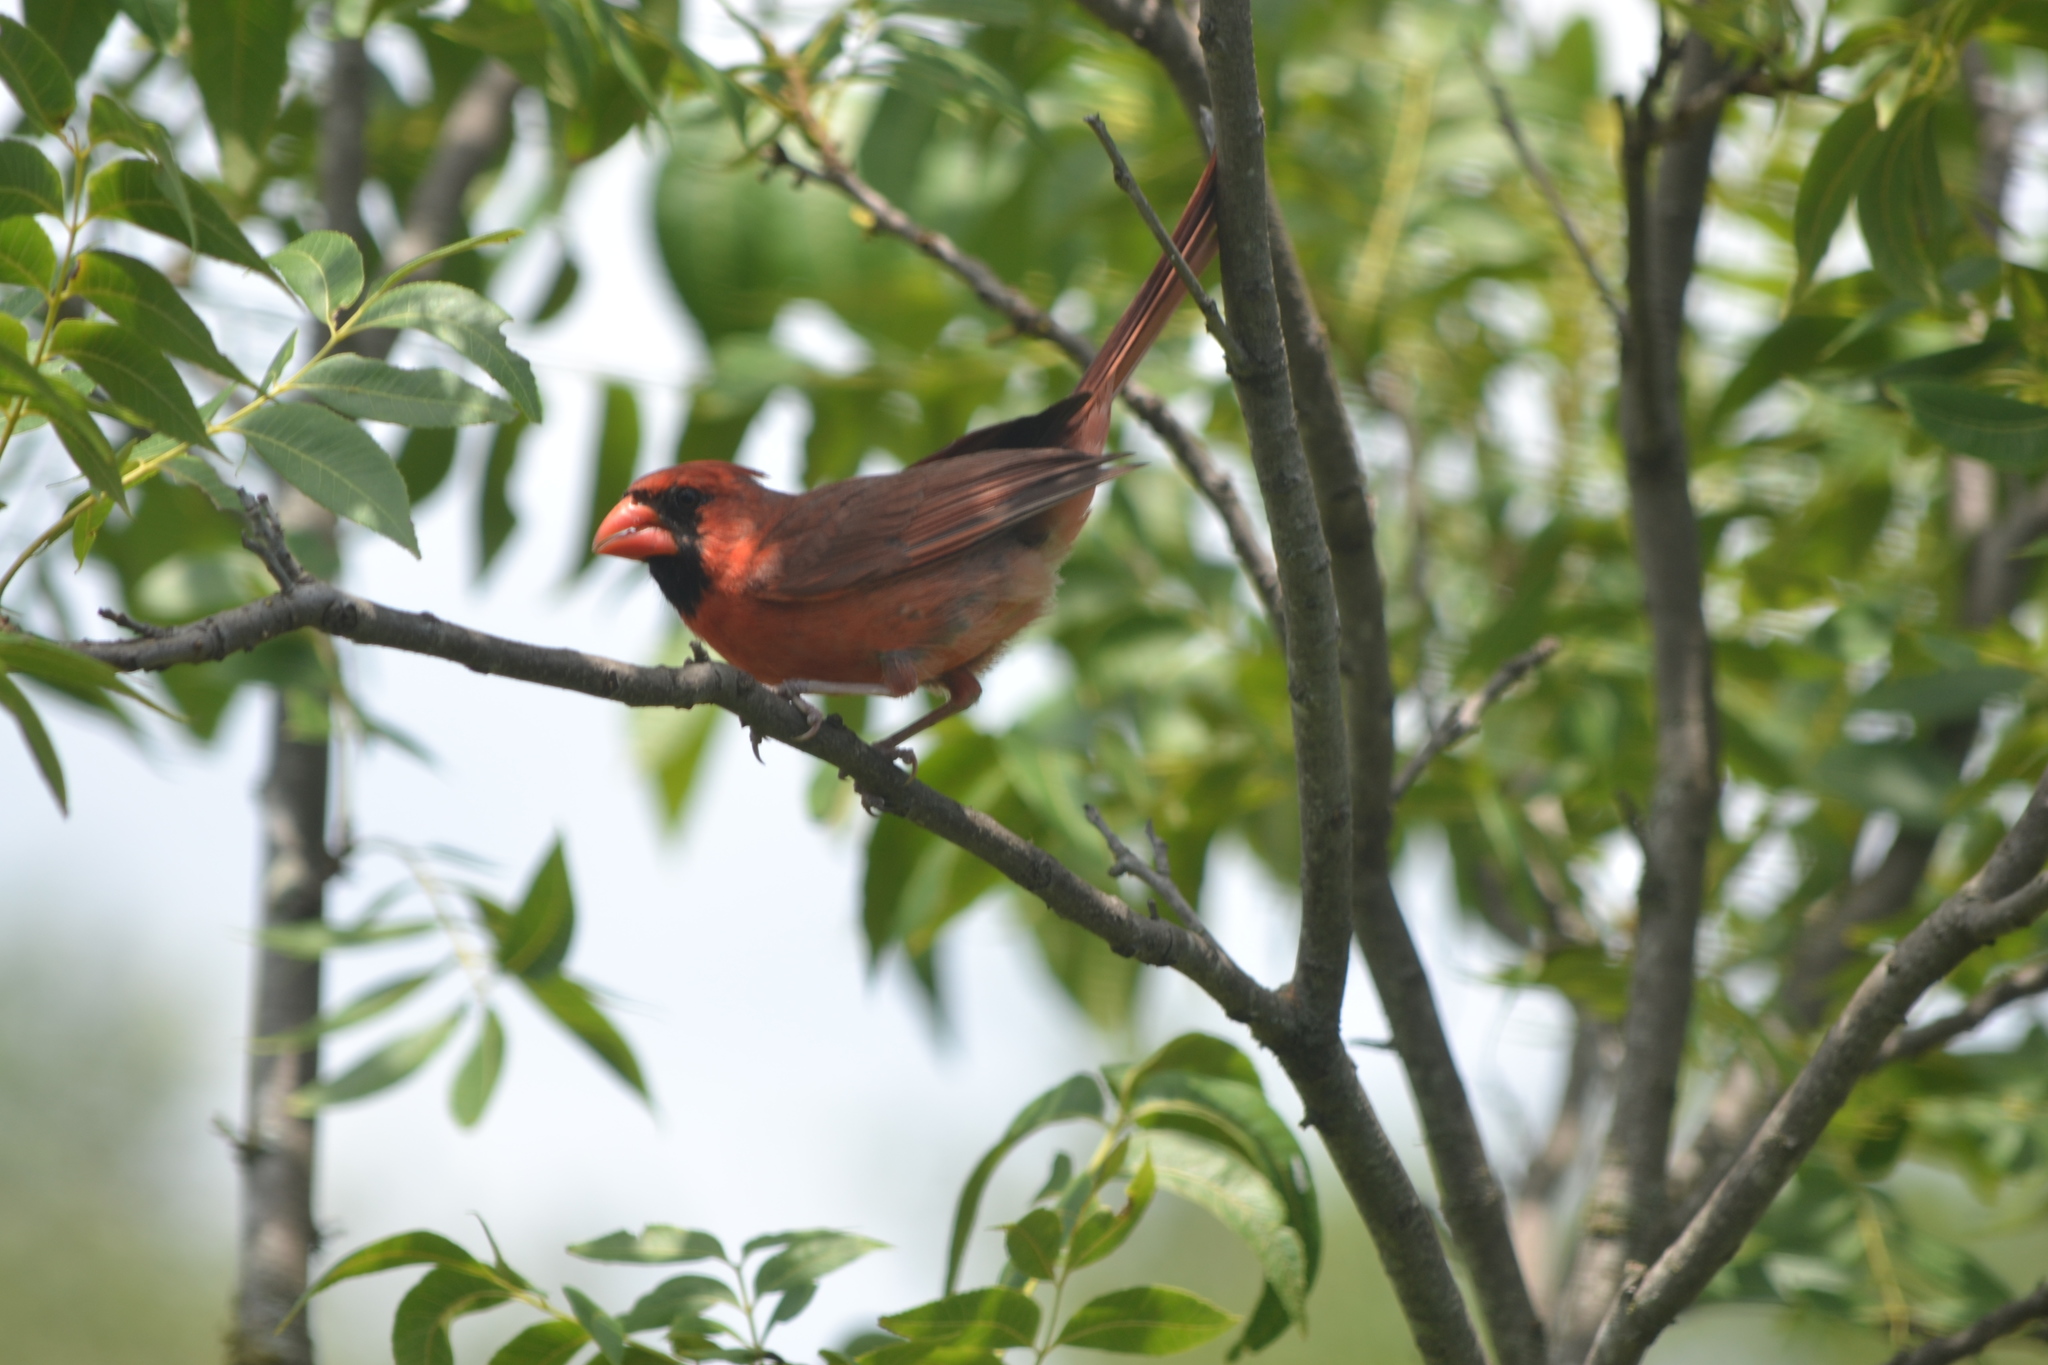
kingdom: Animalia
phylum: Chordata
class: Aves
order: Passeriformes
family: Cardinalidae
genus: Cardinalis
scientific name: Cardinalis cardinalis
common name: Northern cardinal
